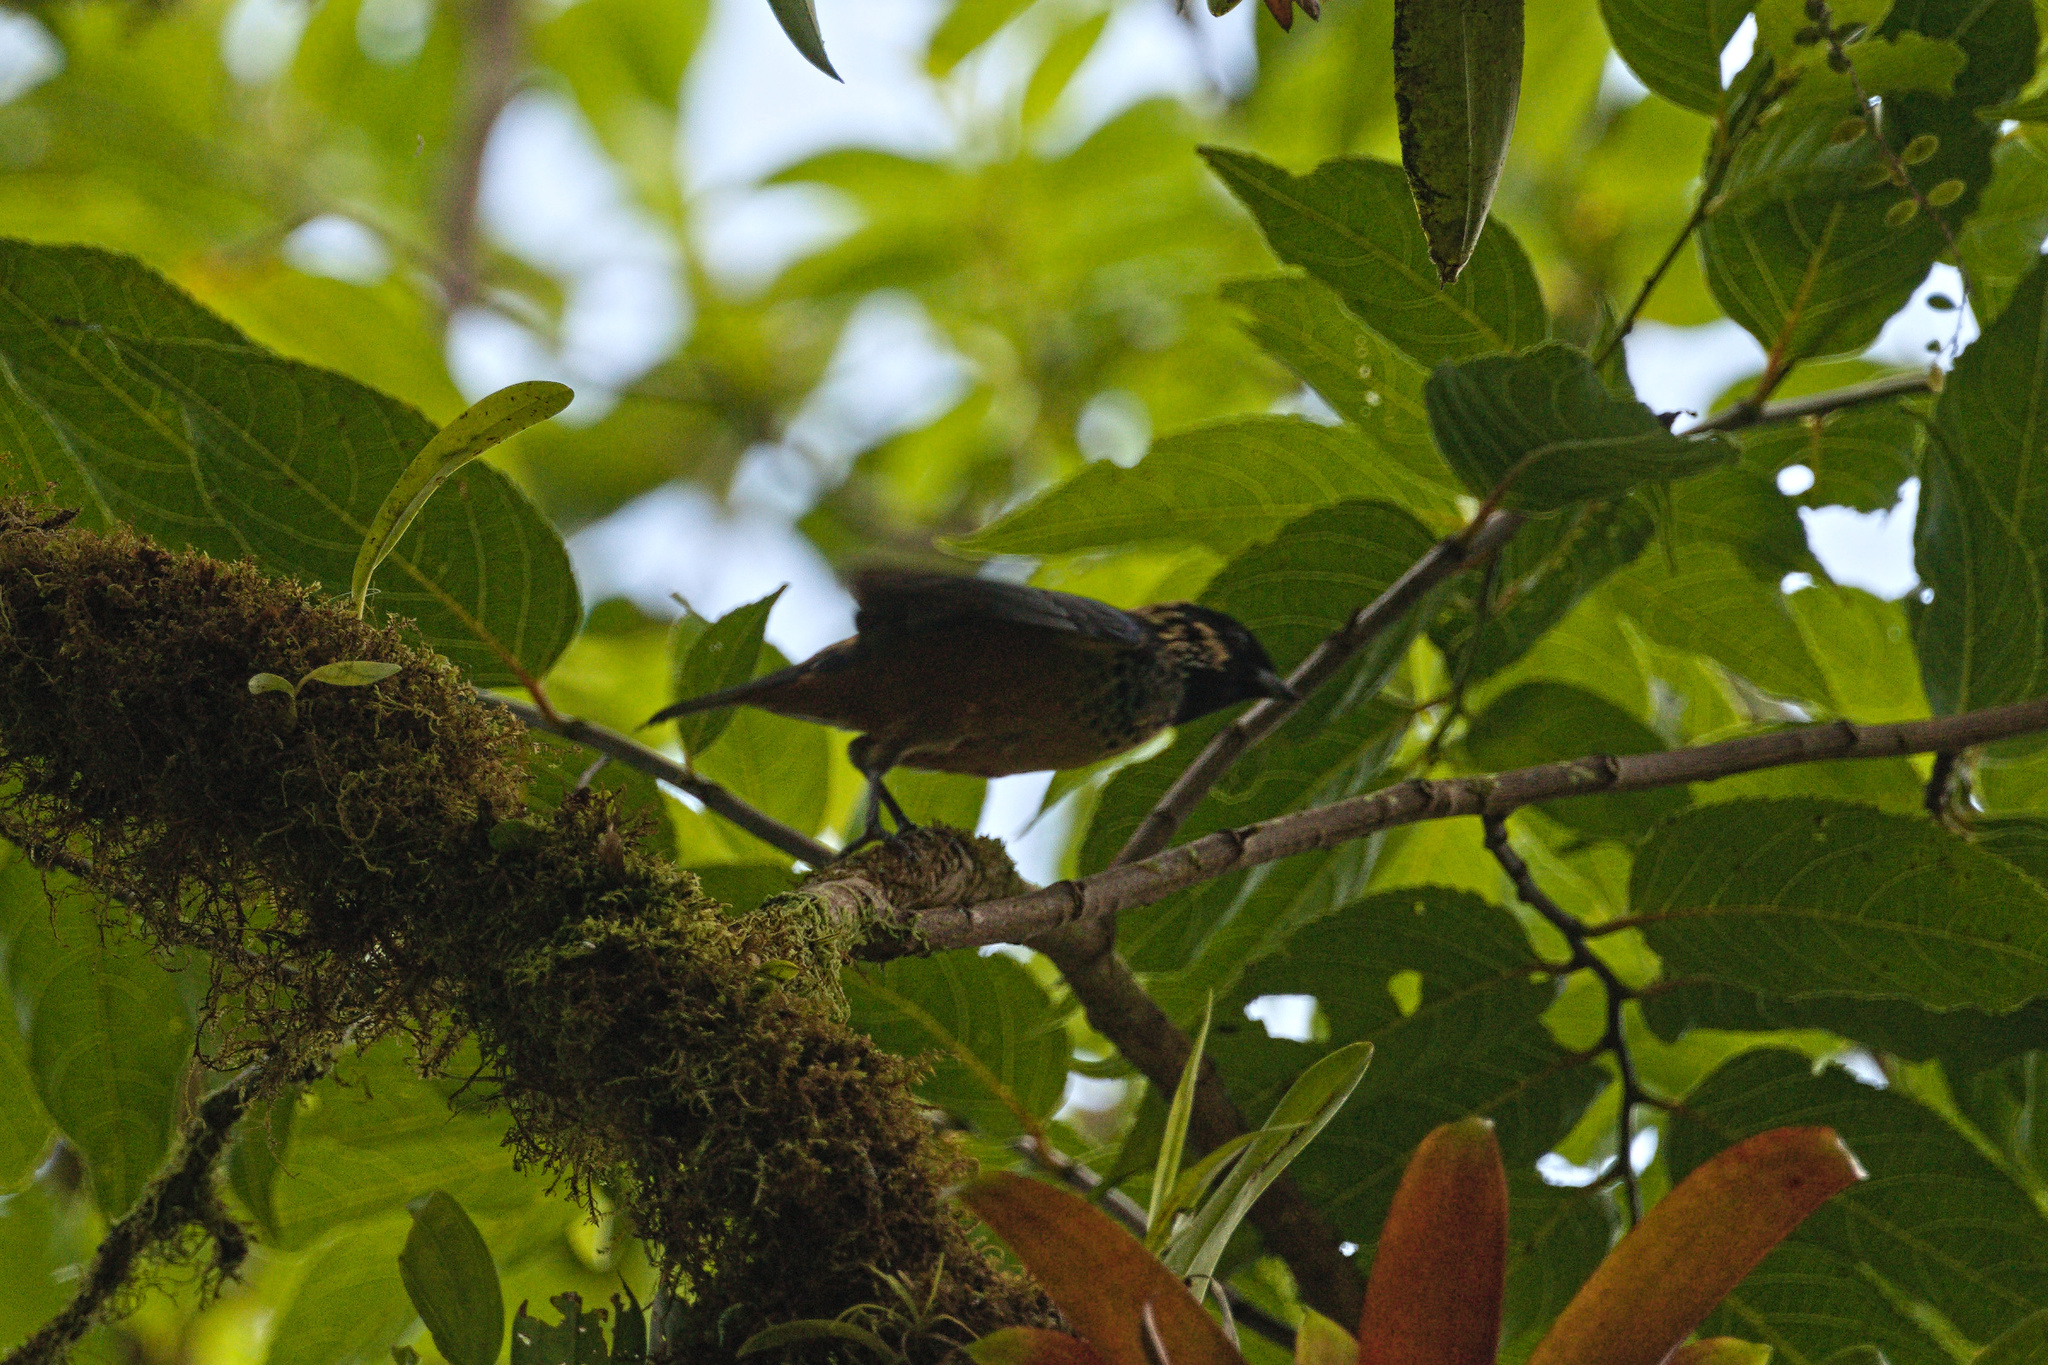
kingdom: Animalia
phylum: Chordata
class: Aves
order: Passeriformes
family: Thraupidae
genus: Tangara
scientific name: Tangara dowii
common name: Spangle-cheeked tanager
